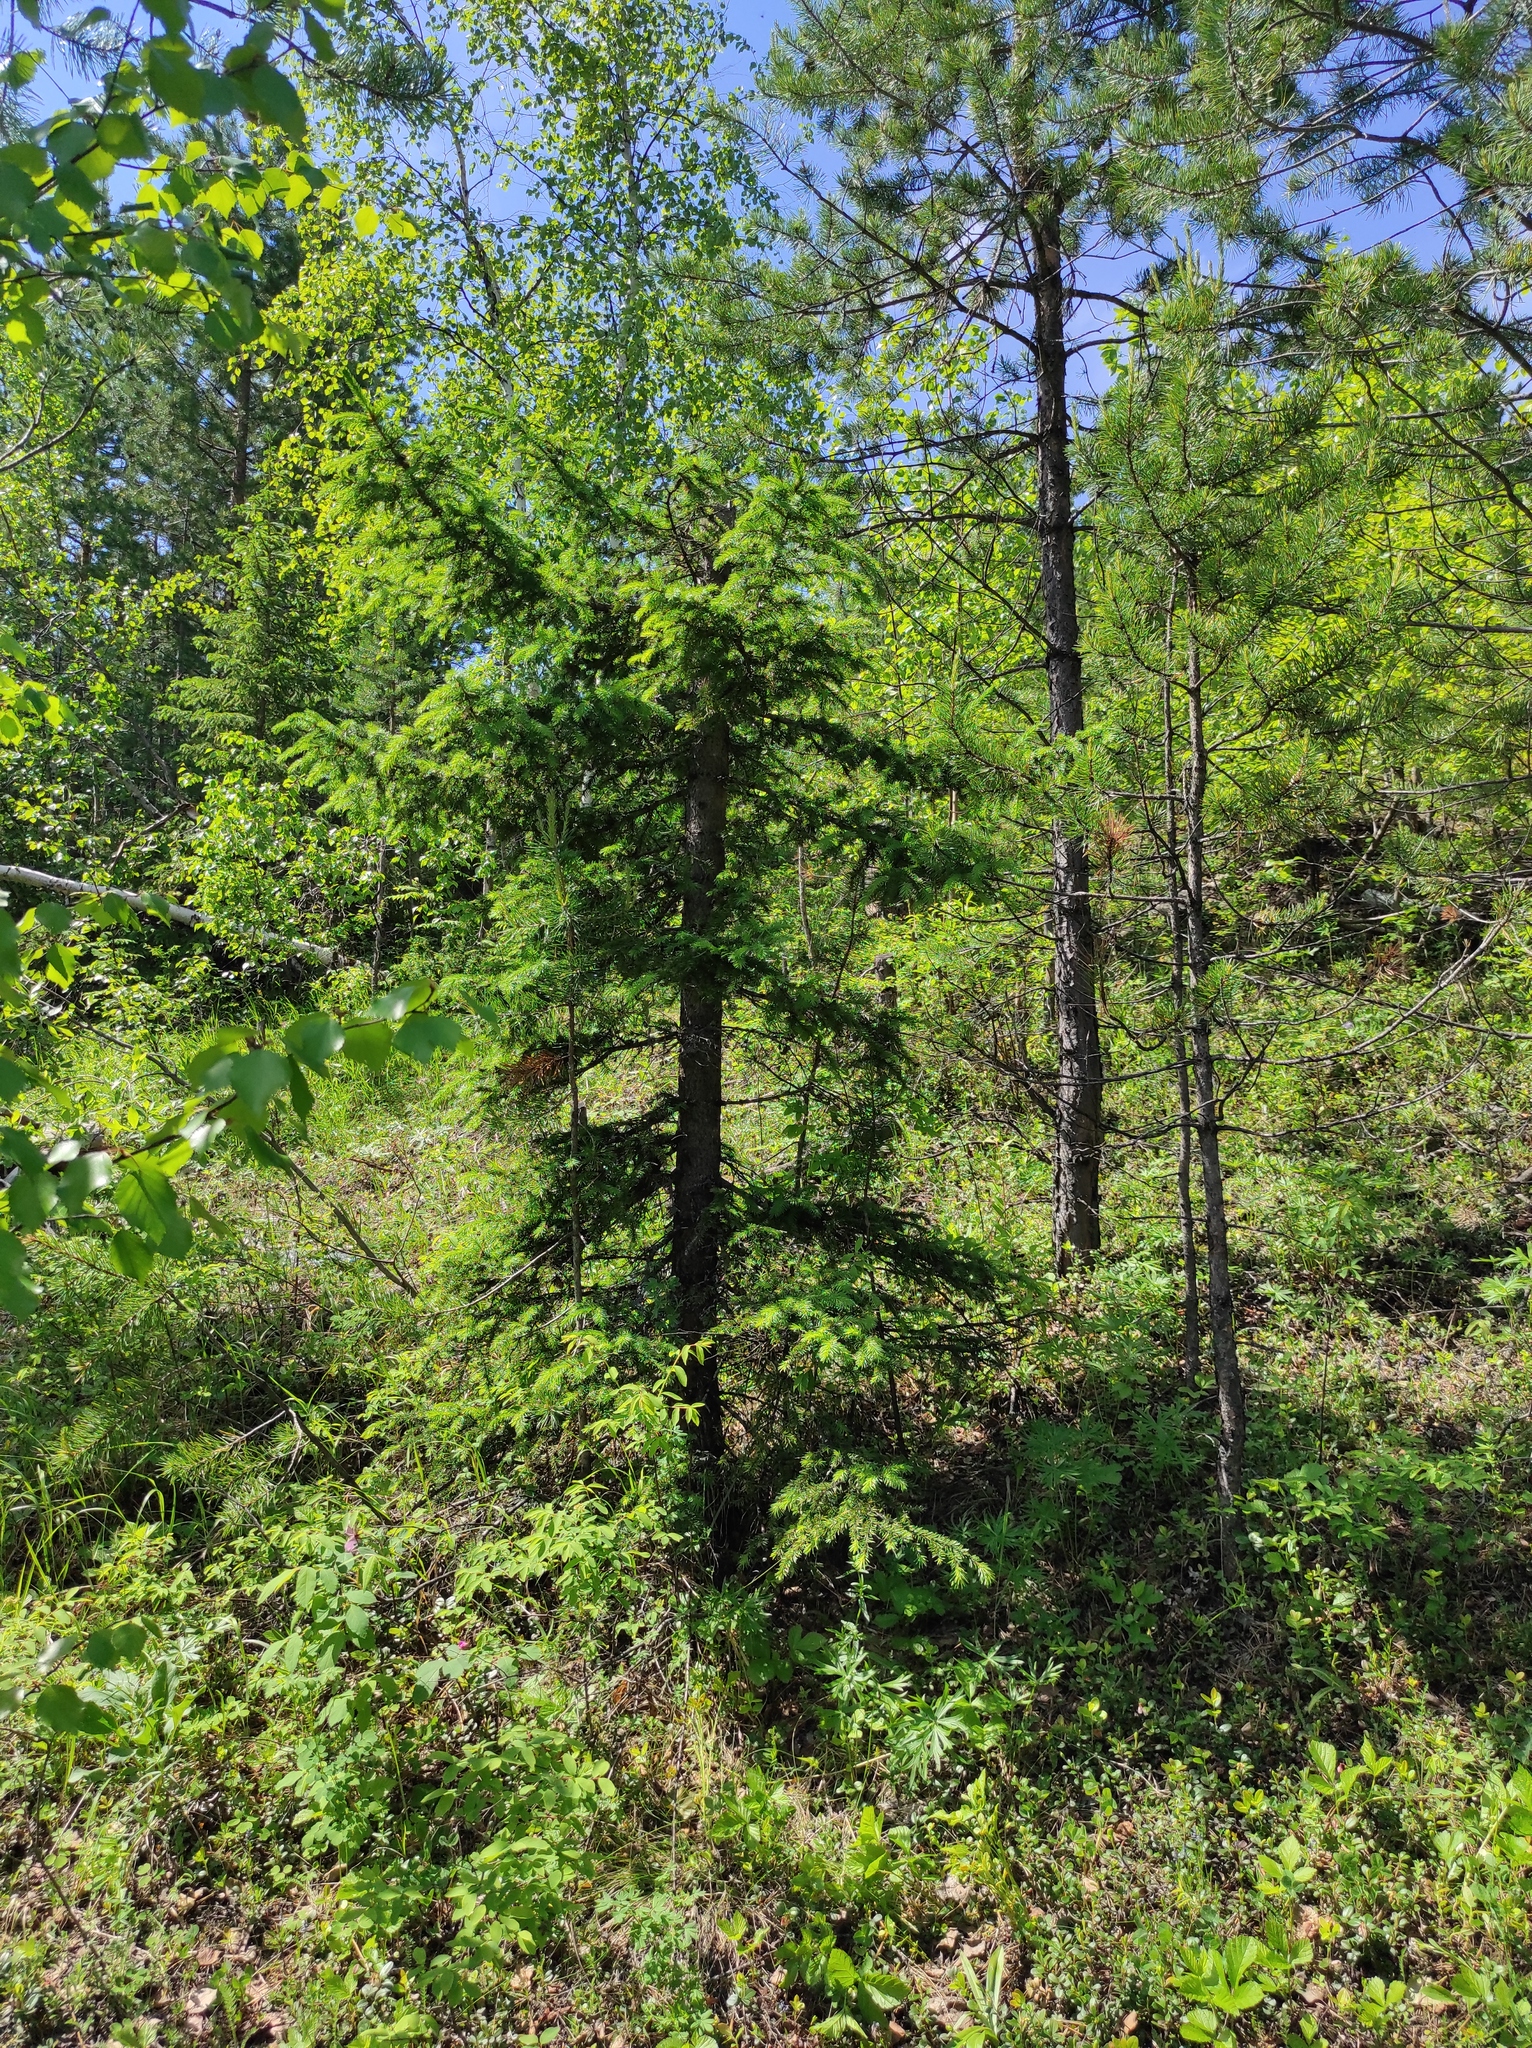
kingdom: Plantae
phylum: Tracheophyta
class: Pinopsida
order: Pinales
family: Pinaceae
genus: Picea
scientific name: Picea obovata
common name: Siberian spruce
